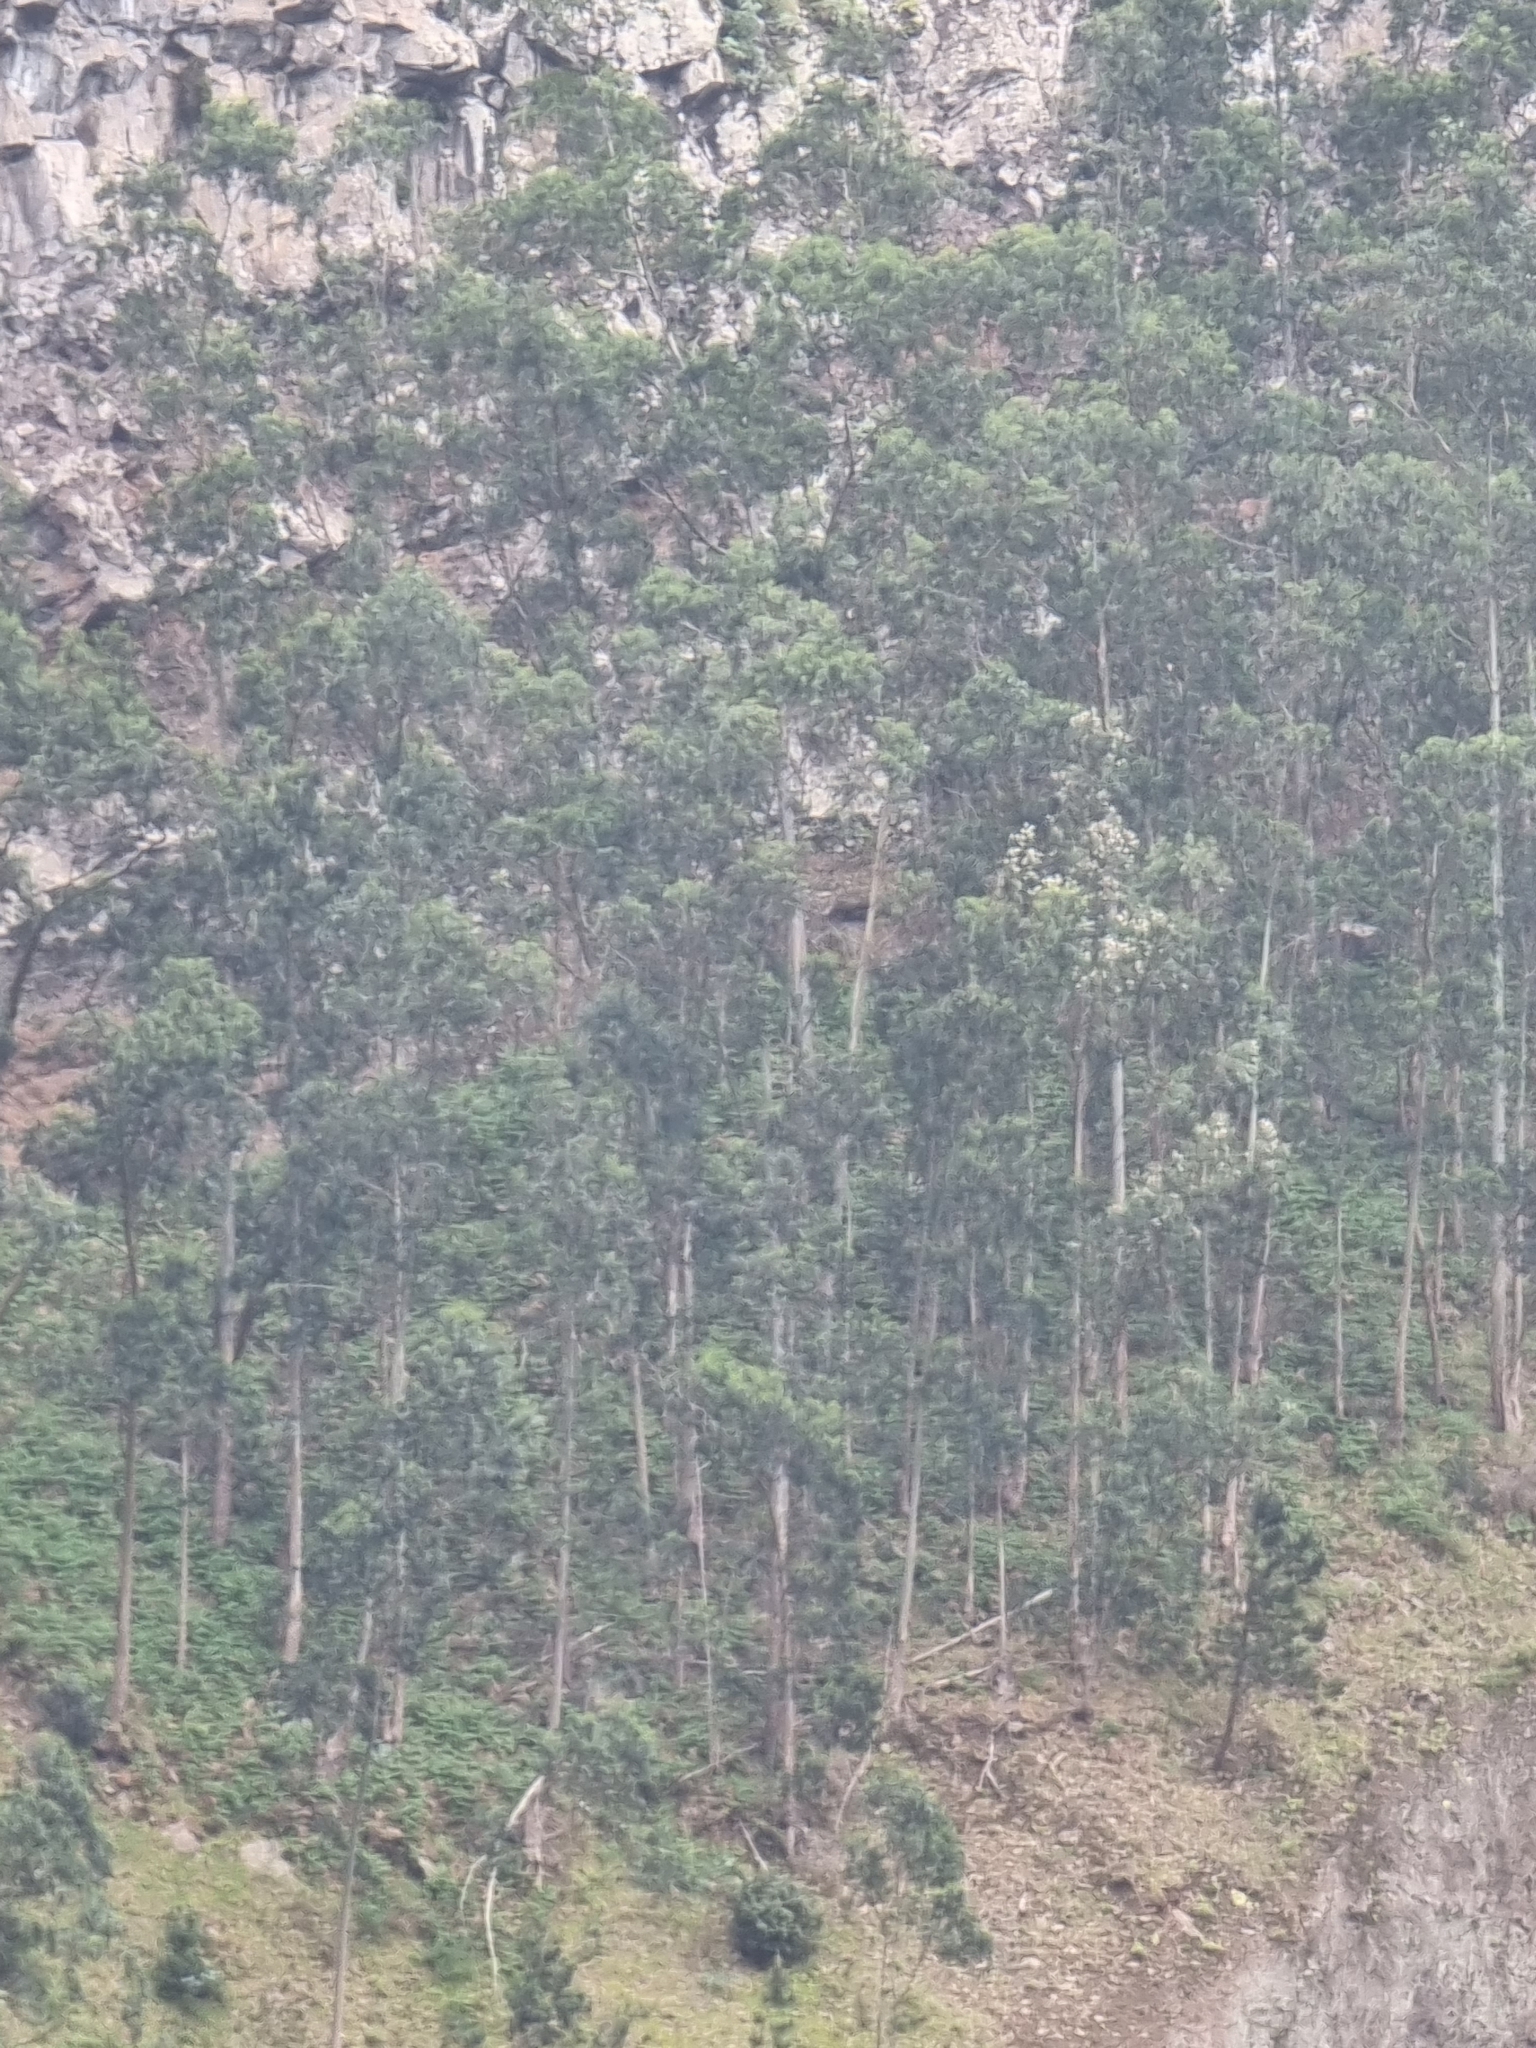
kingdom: Plantae
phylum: Tracheophyta
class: Magnoliopsida
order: Myrtales
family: Myrtaceae
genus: Eucalyptus
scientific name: Eucalyptus globulus
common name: Southern blue-gum
